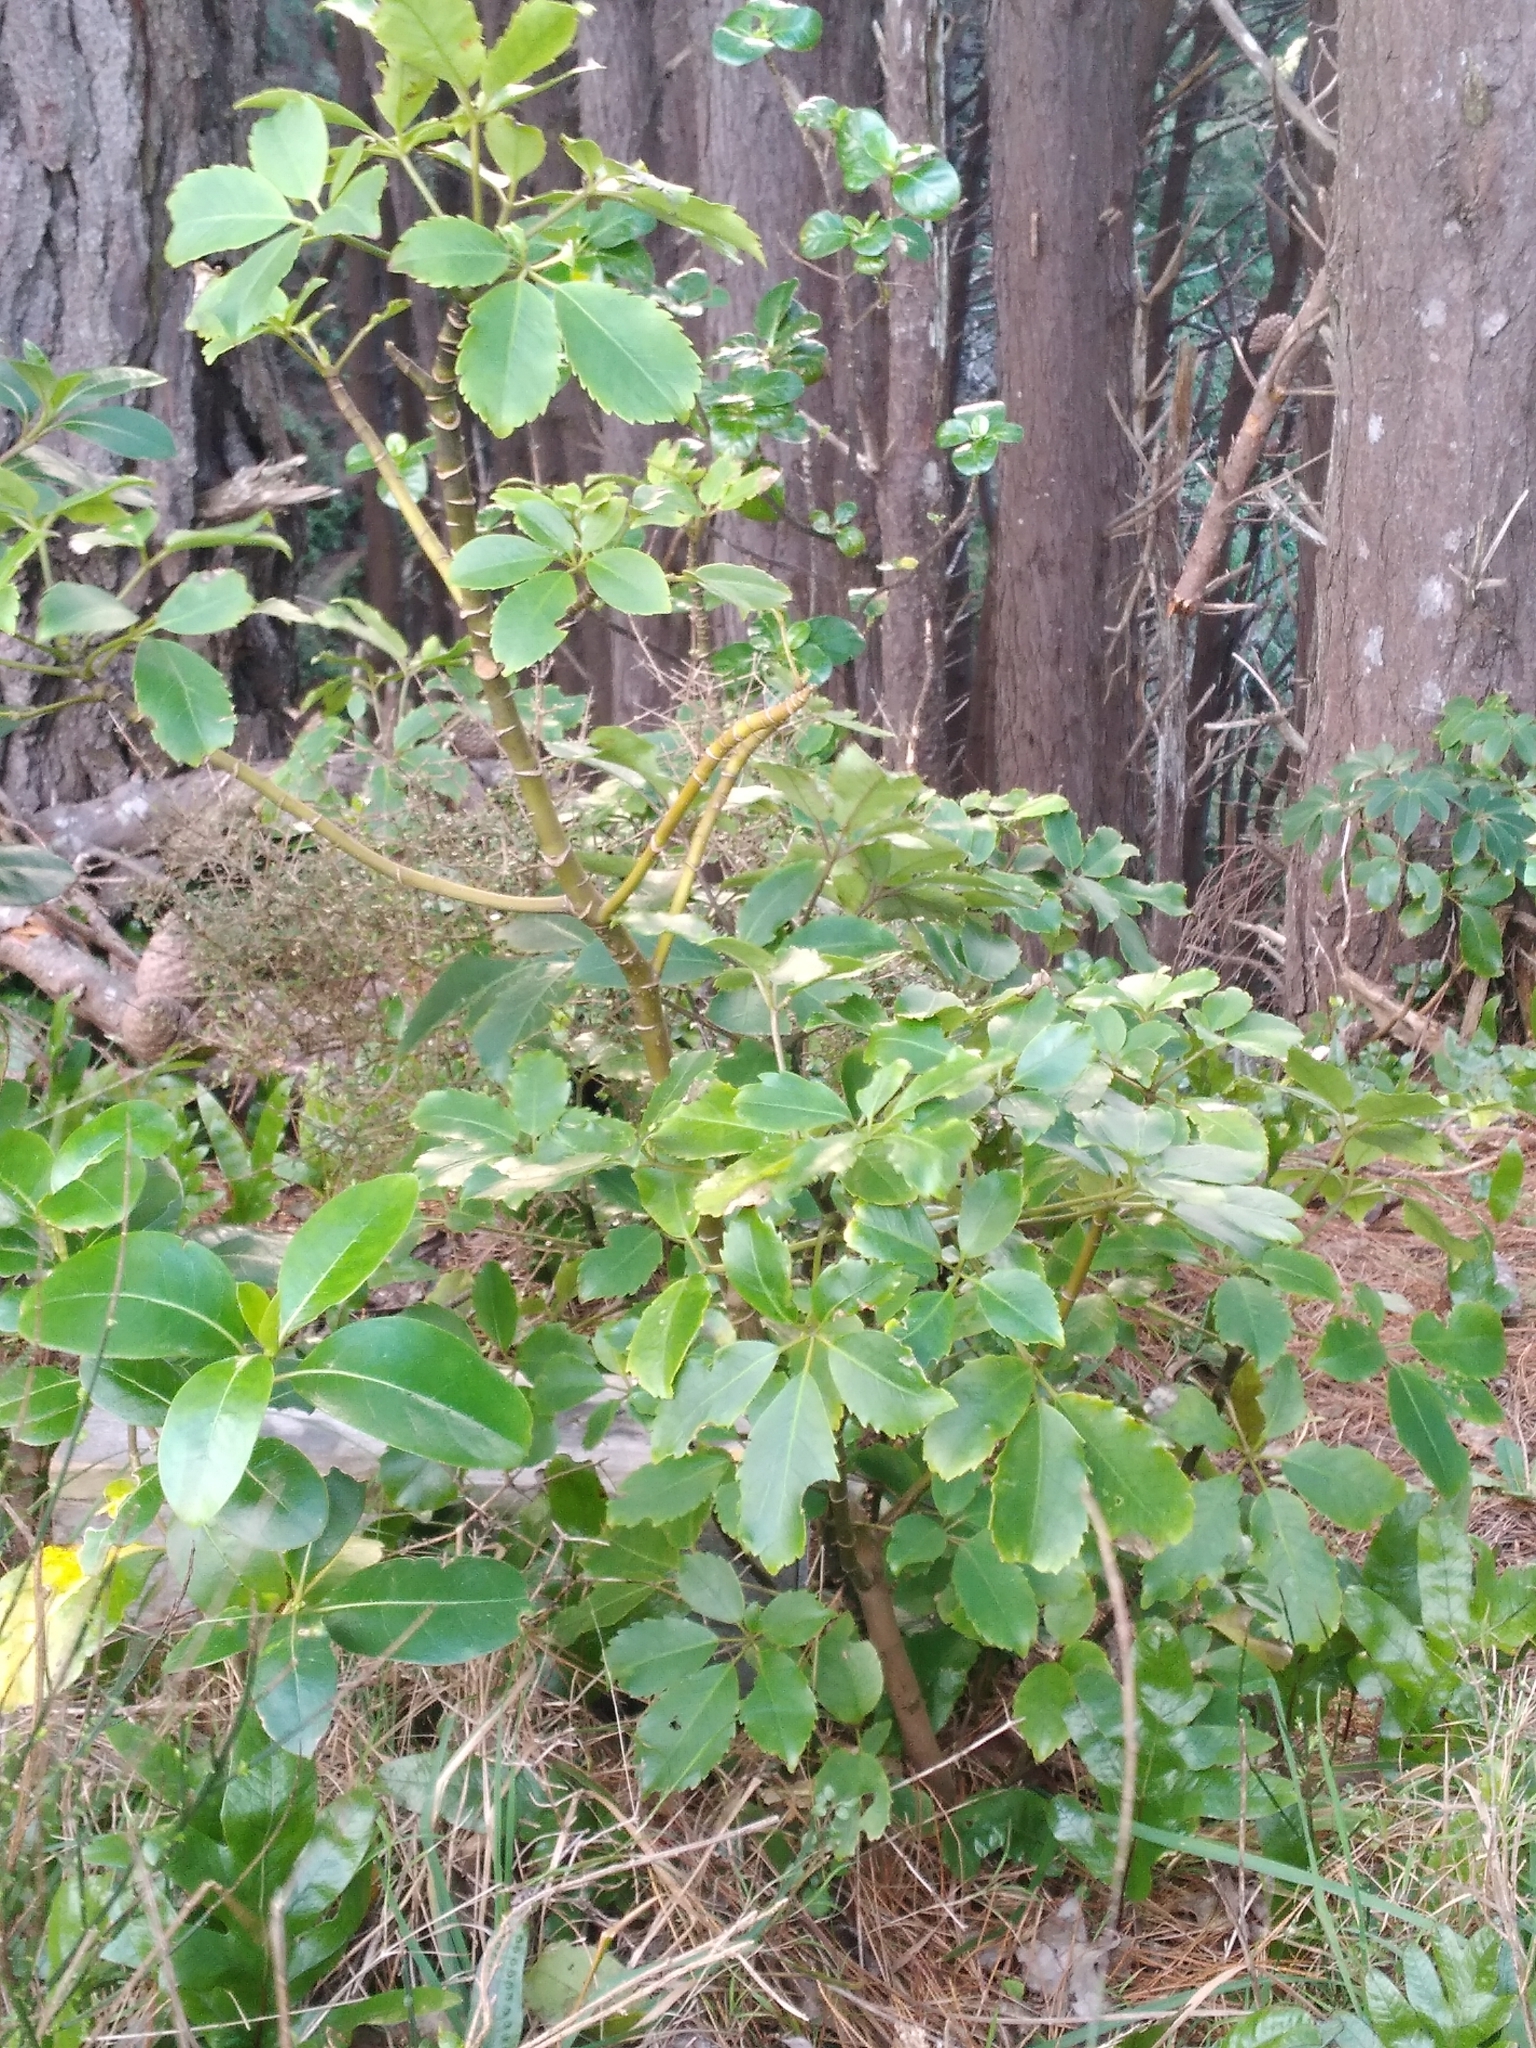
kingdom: Plantae
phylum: Tracheophyta
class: Magnoliopsida
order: Apiales
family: Araliaceae
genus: Neopanax
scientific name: Neopanax arboreus
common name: Five-fingers
